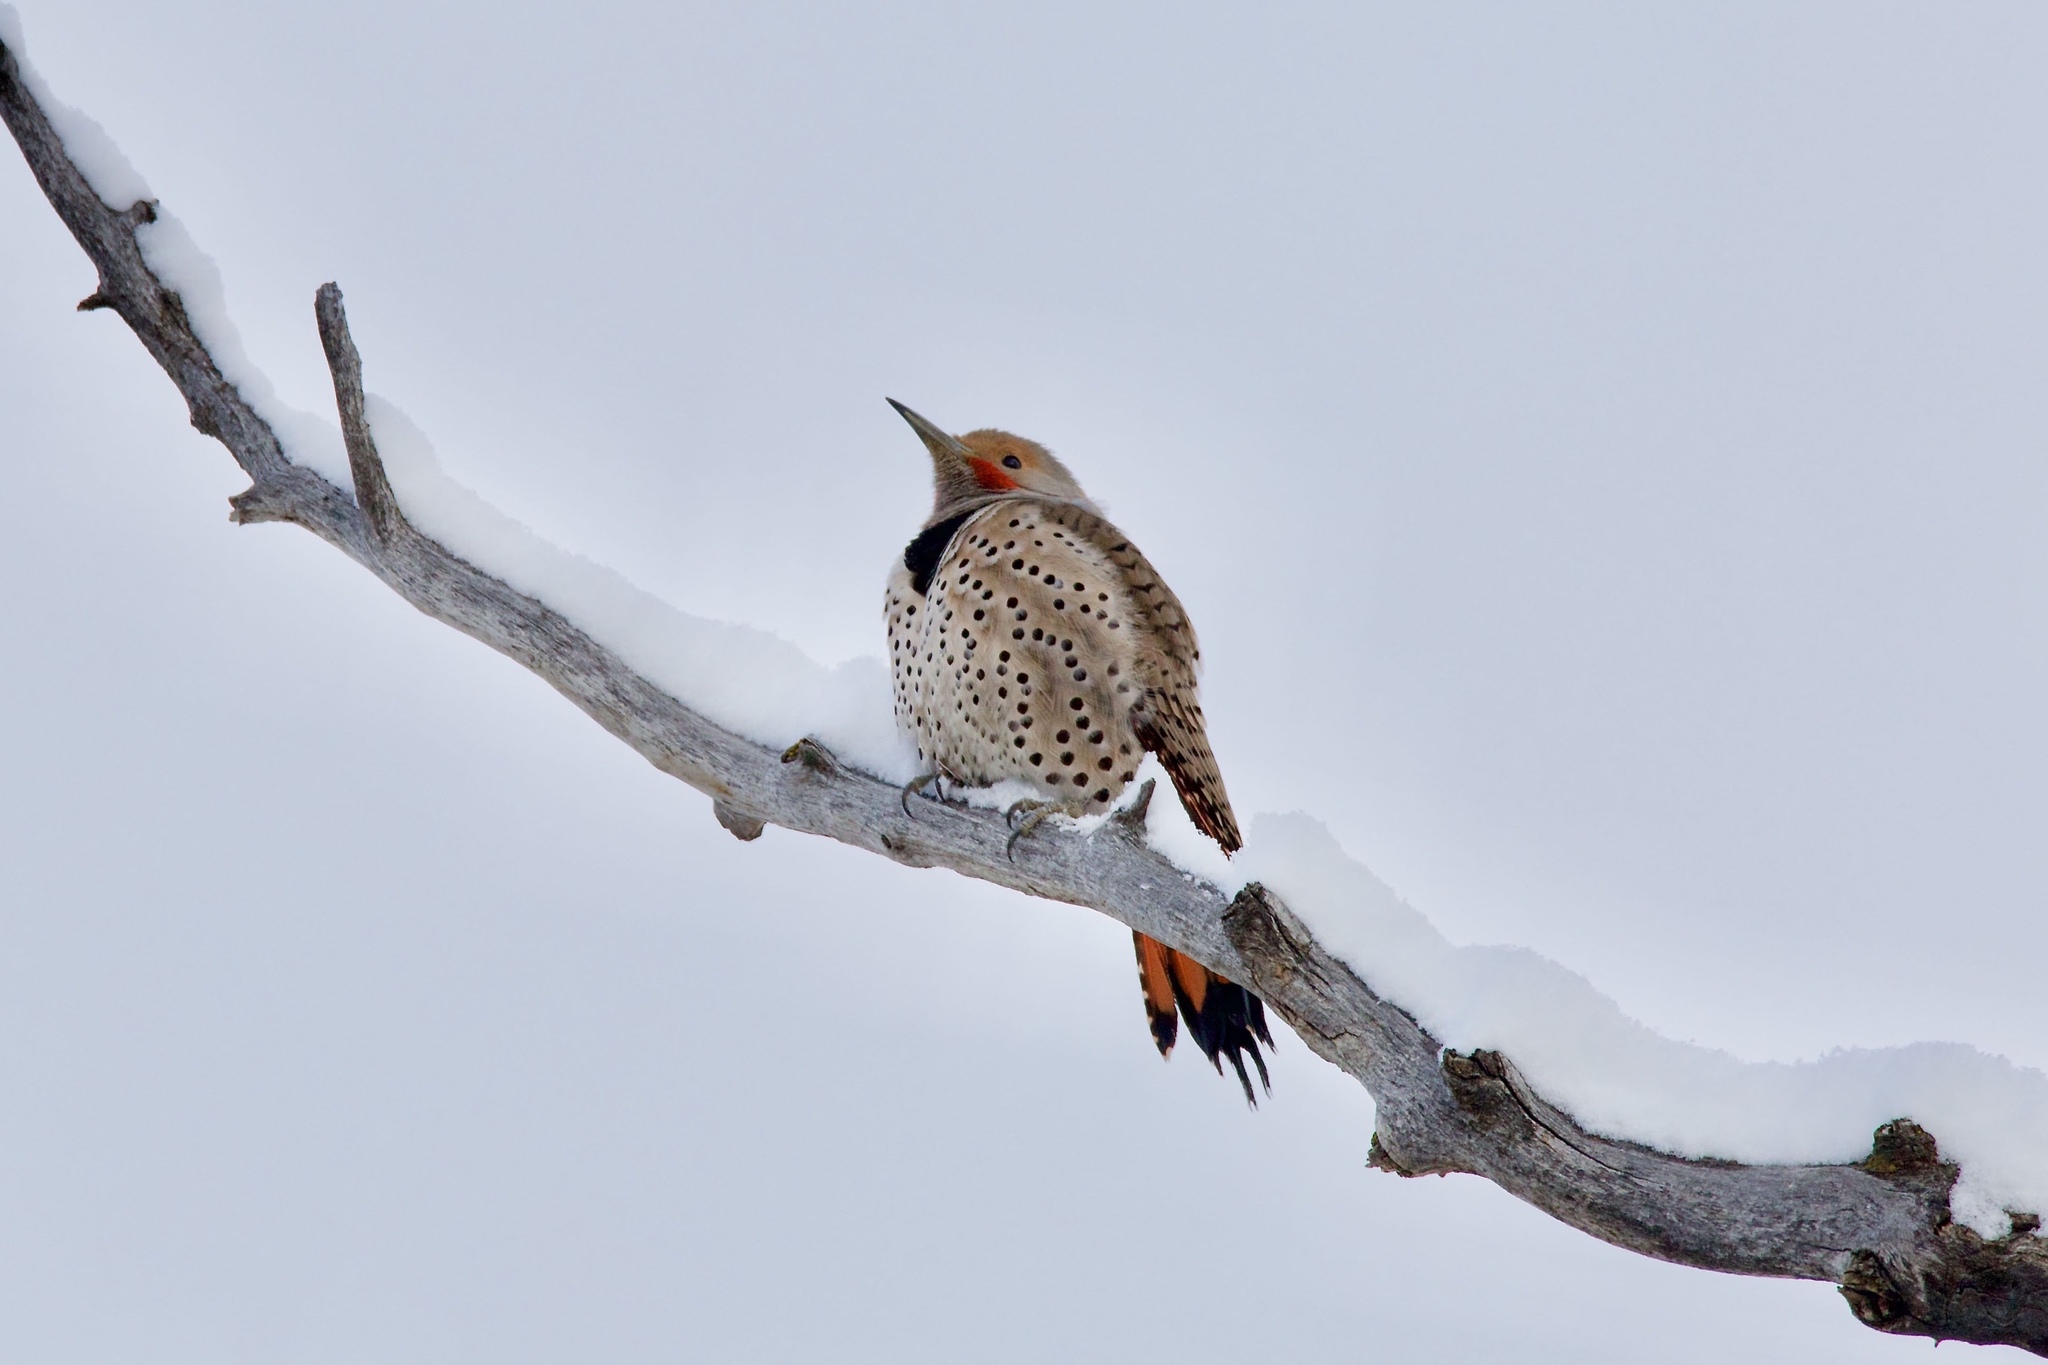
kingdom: Animalia
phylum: Chordata
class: Aves
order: Piciformes
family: Picidae
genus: Colaptes
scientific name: Colaptes auratus
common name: Northern flicker
